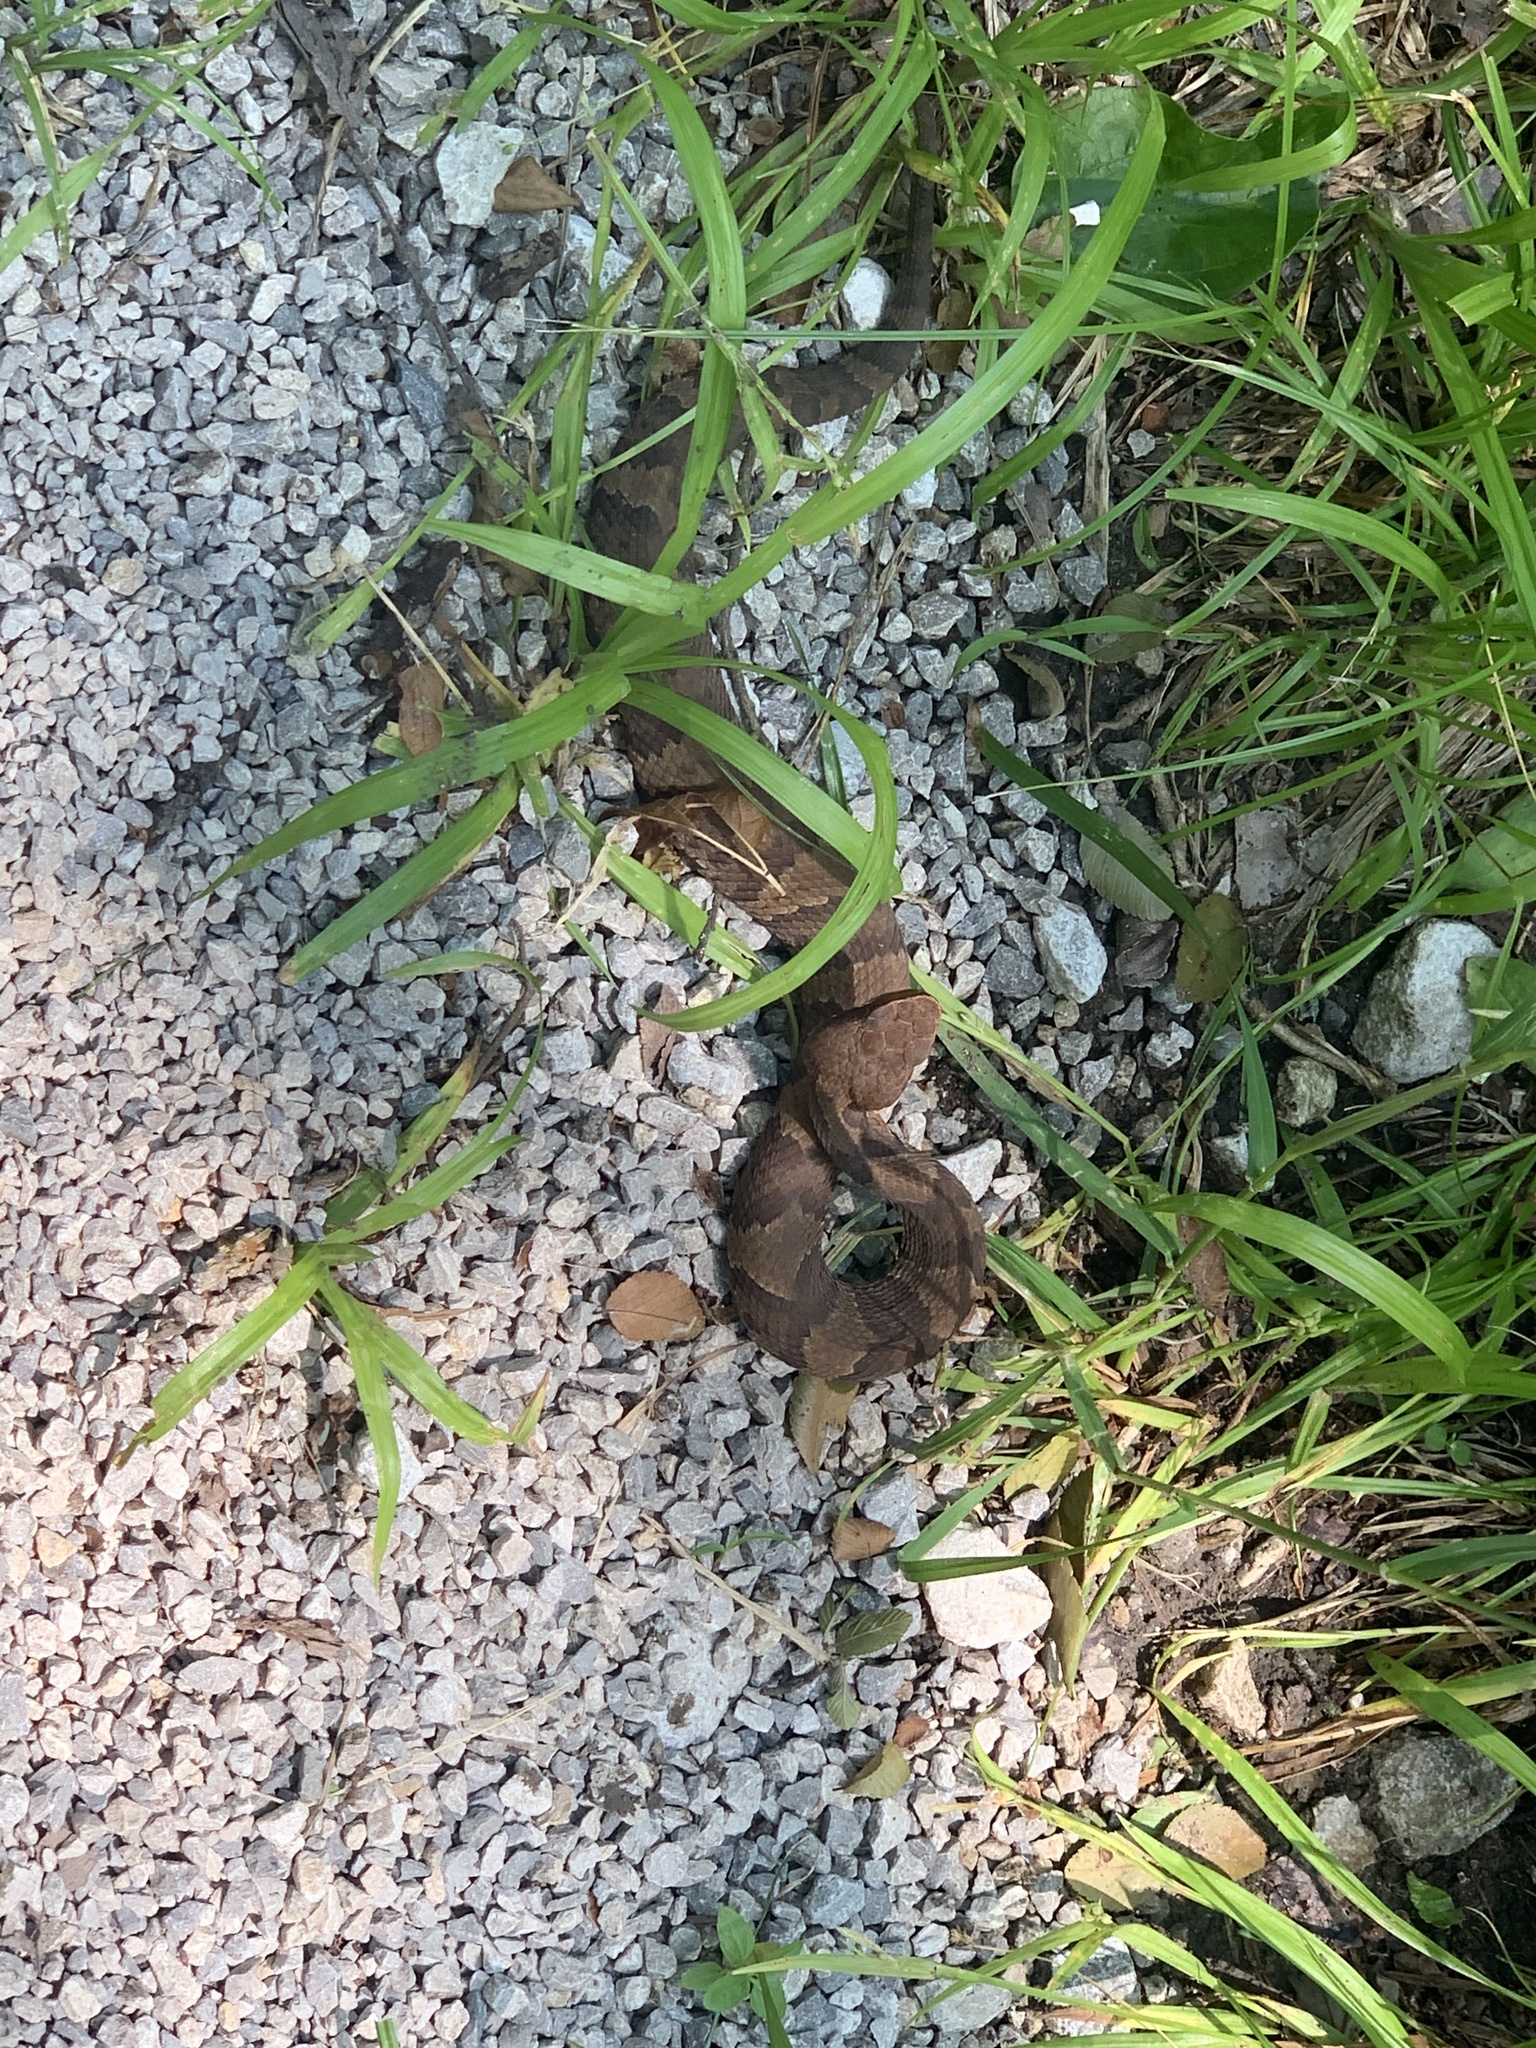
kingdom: Animalia
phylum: Chordata
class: Squamata
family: Viperidae
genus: Agkistrodon
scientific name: Agkistrodon piscivorus
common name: Cottonmouth
